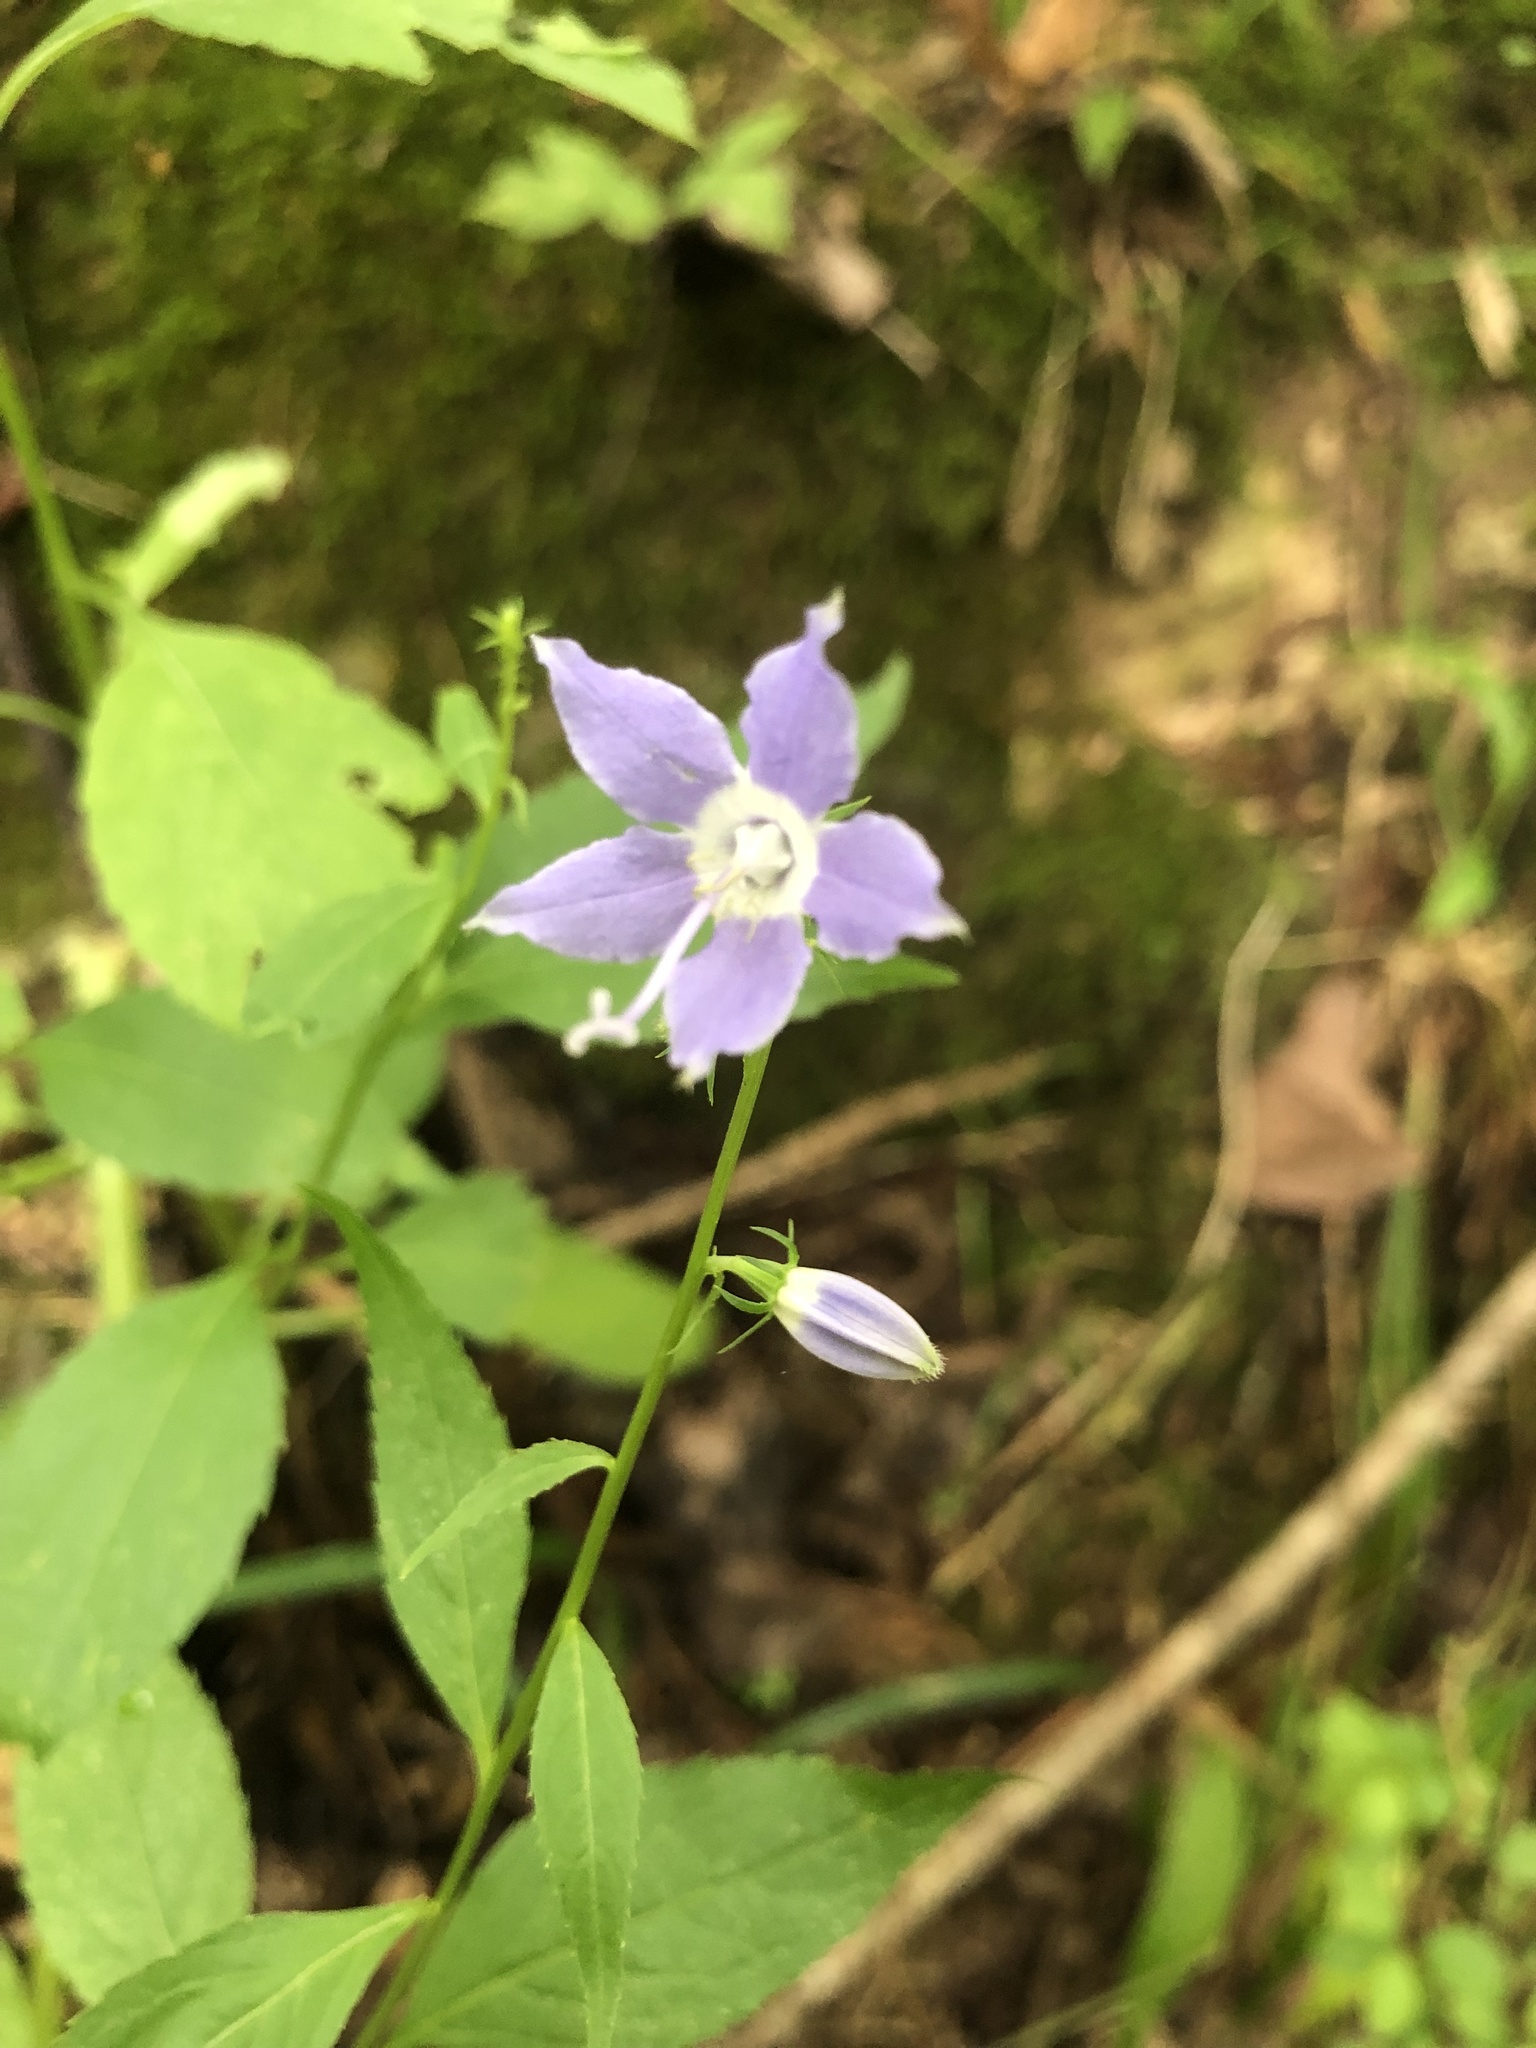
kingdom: Plantae
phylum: Tracheophyta
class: Magnoliopsida
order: Asterales
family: Campanulaceae
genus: Campanulastrum
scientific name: Campanulastrum americanum
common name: American bellflower
